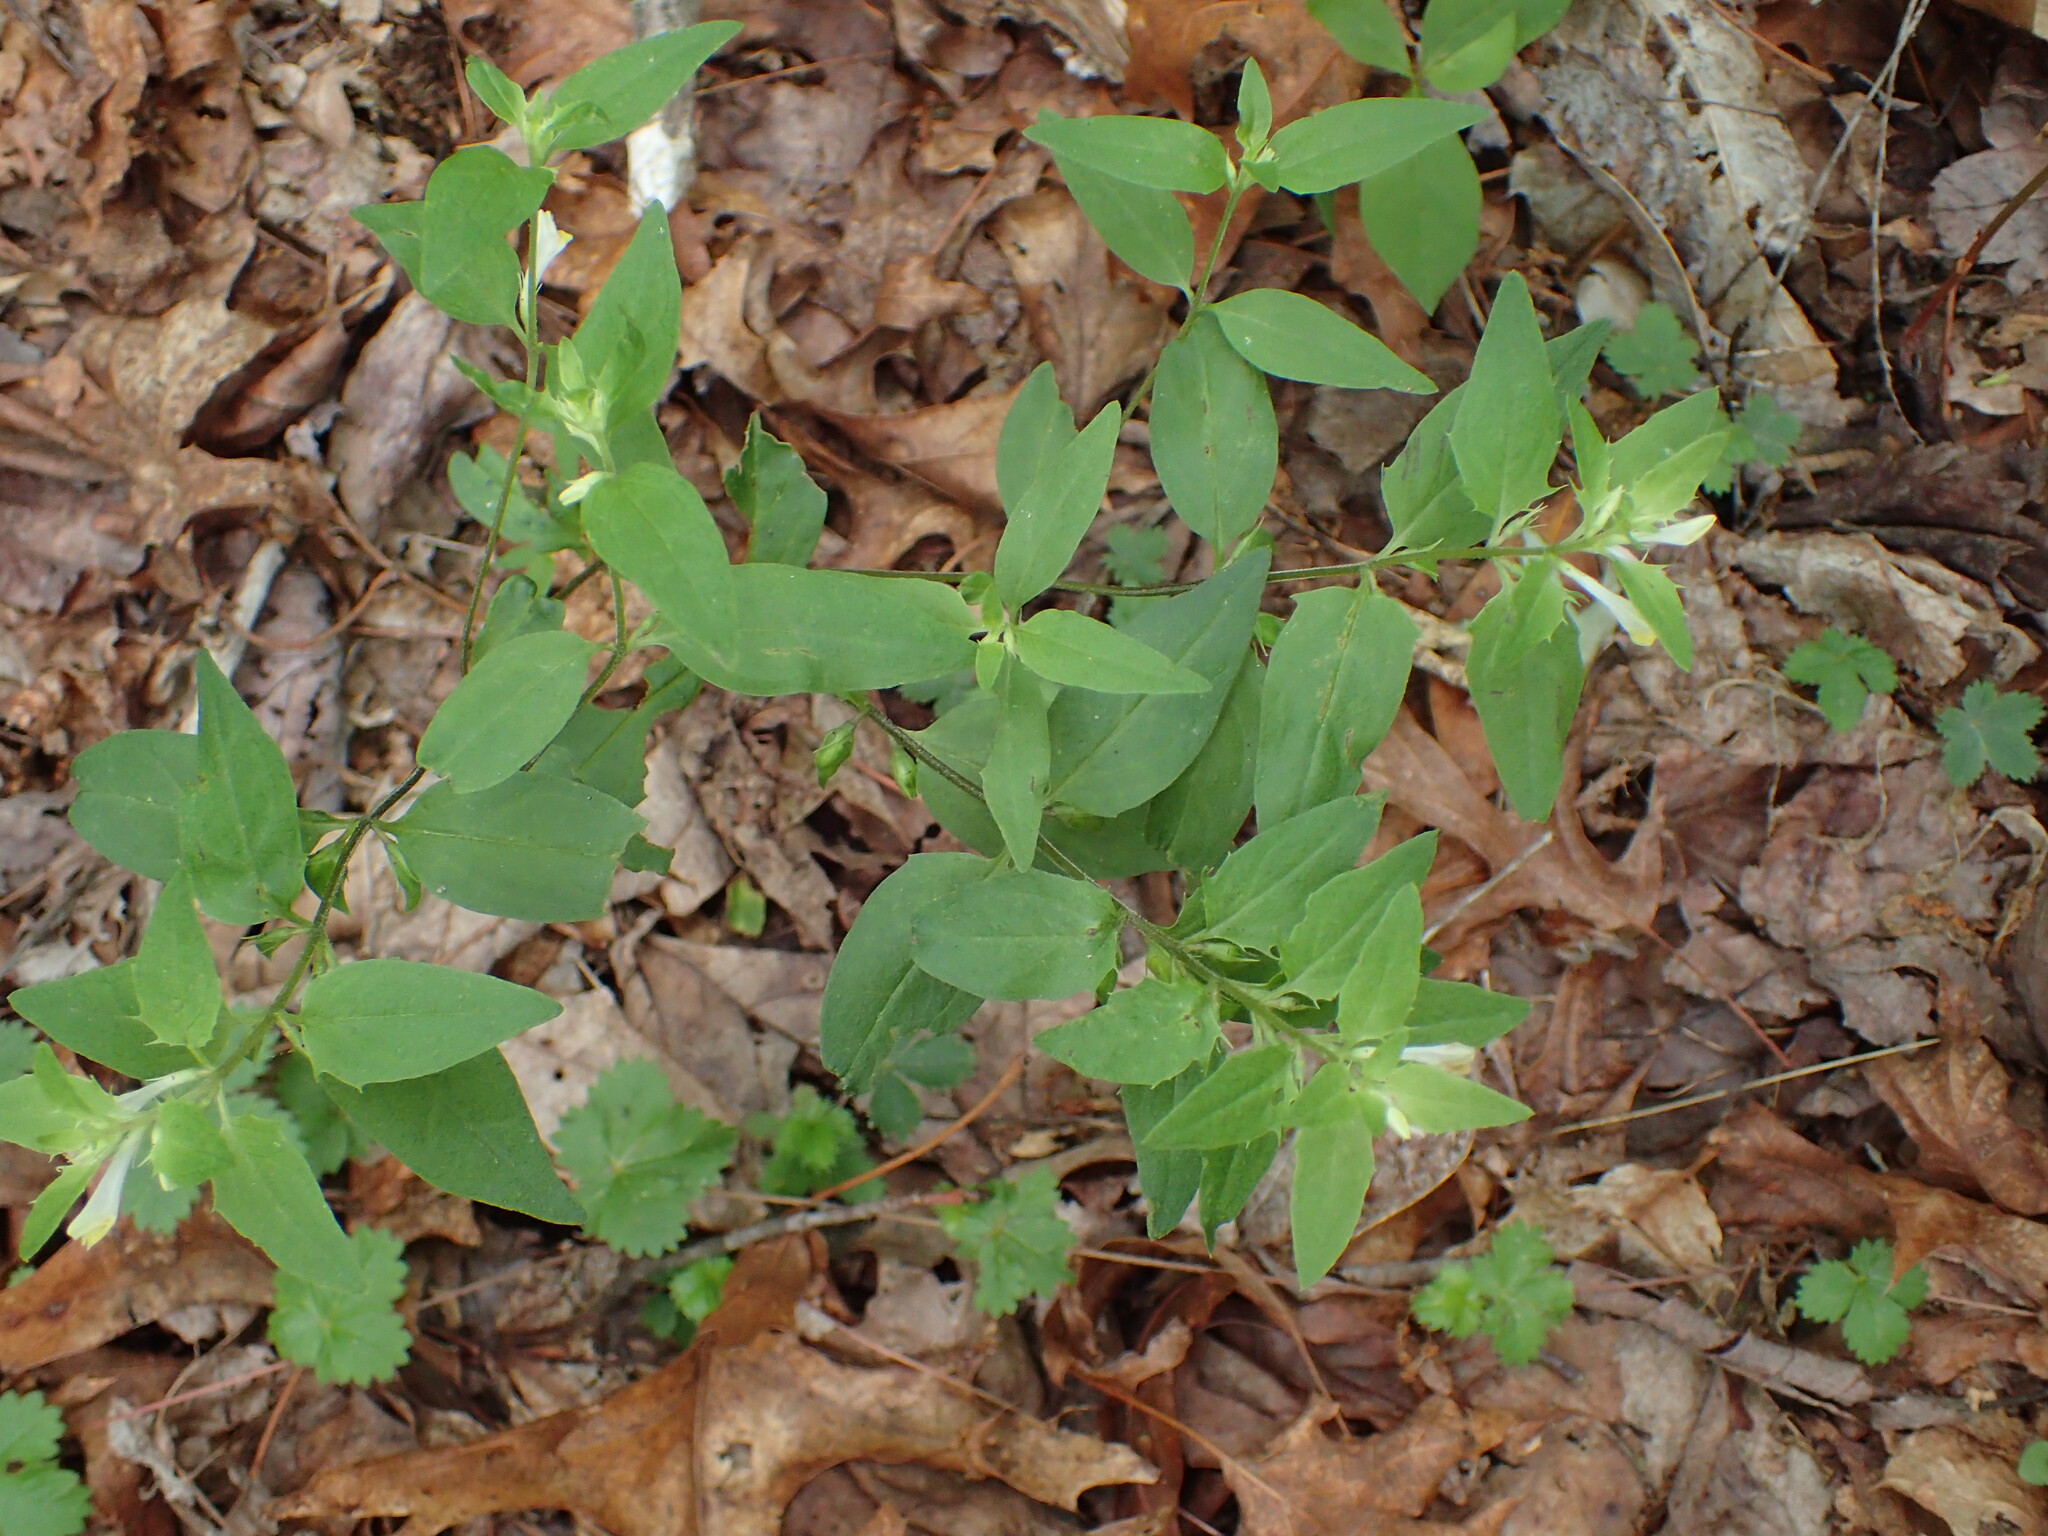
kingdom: Plantae
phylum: Tracheophyta
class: Magnoliopsida
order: Lamiales
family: Orobanchaceae
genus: Melampyrum
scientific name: Melampyrum lineare
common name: American cow-wheat
